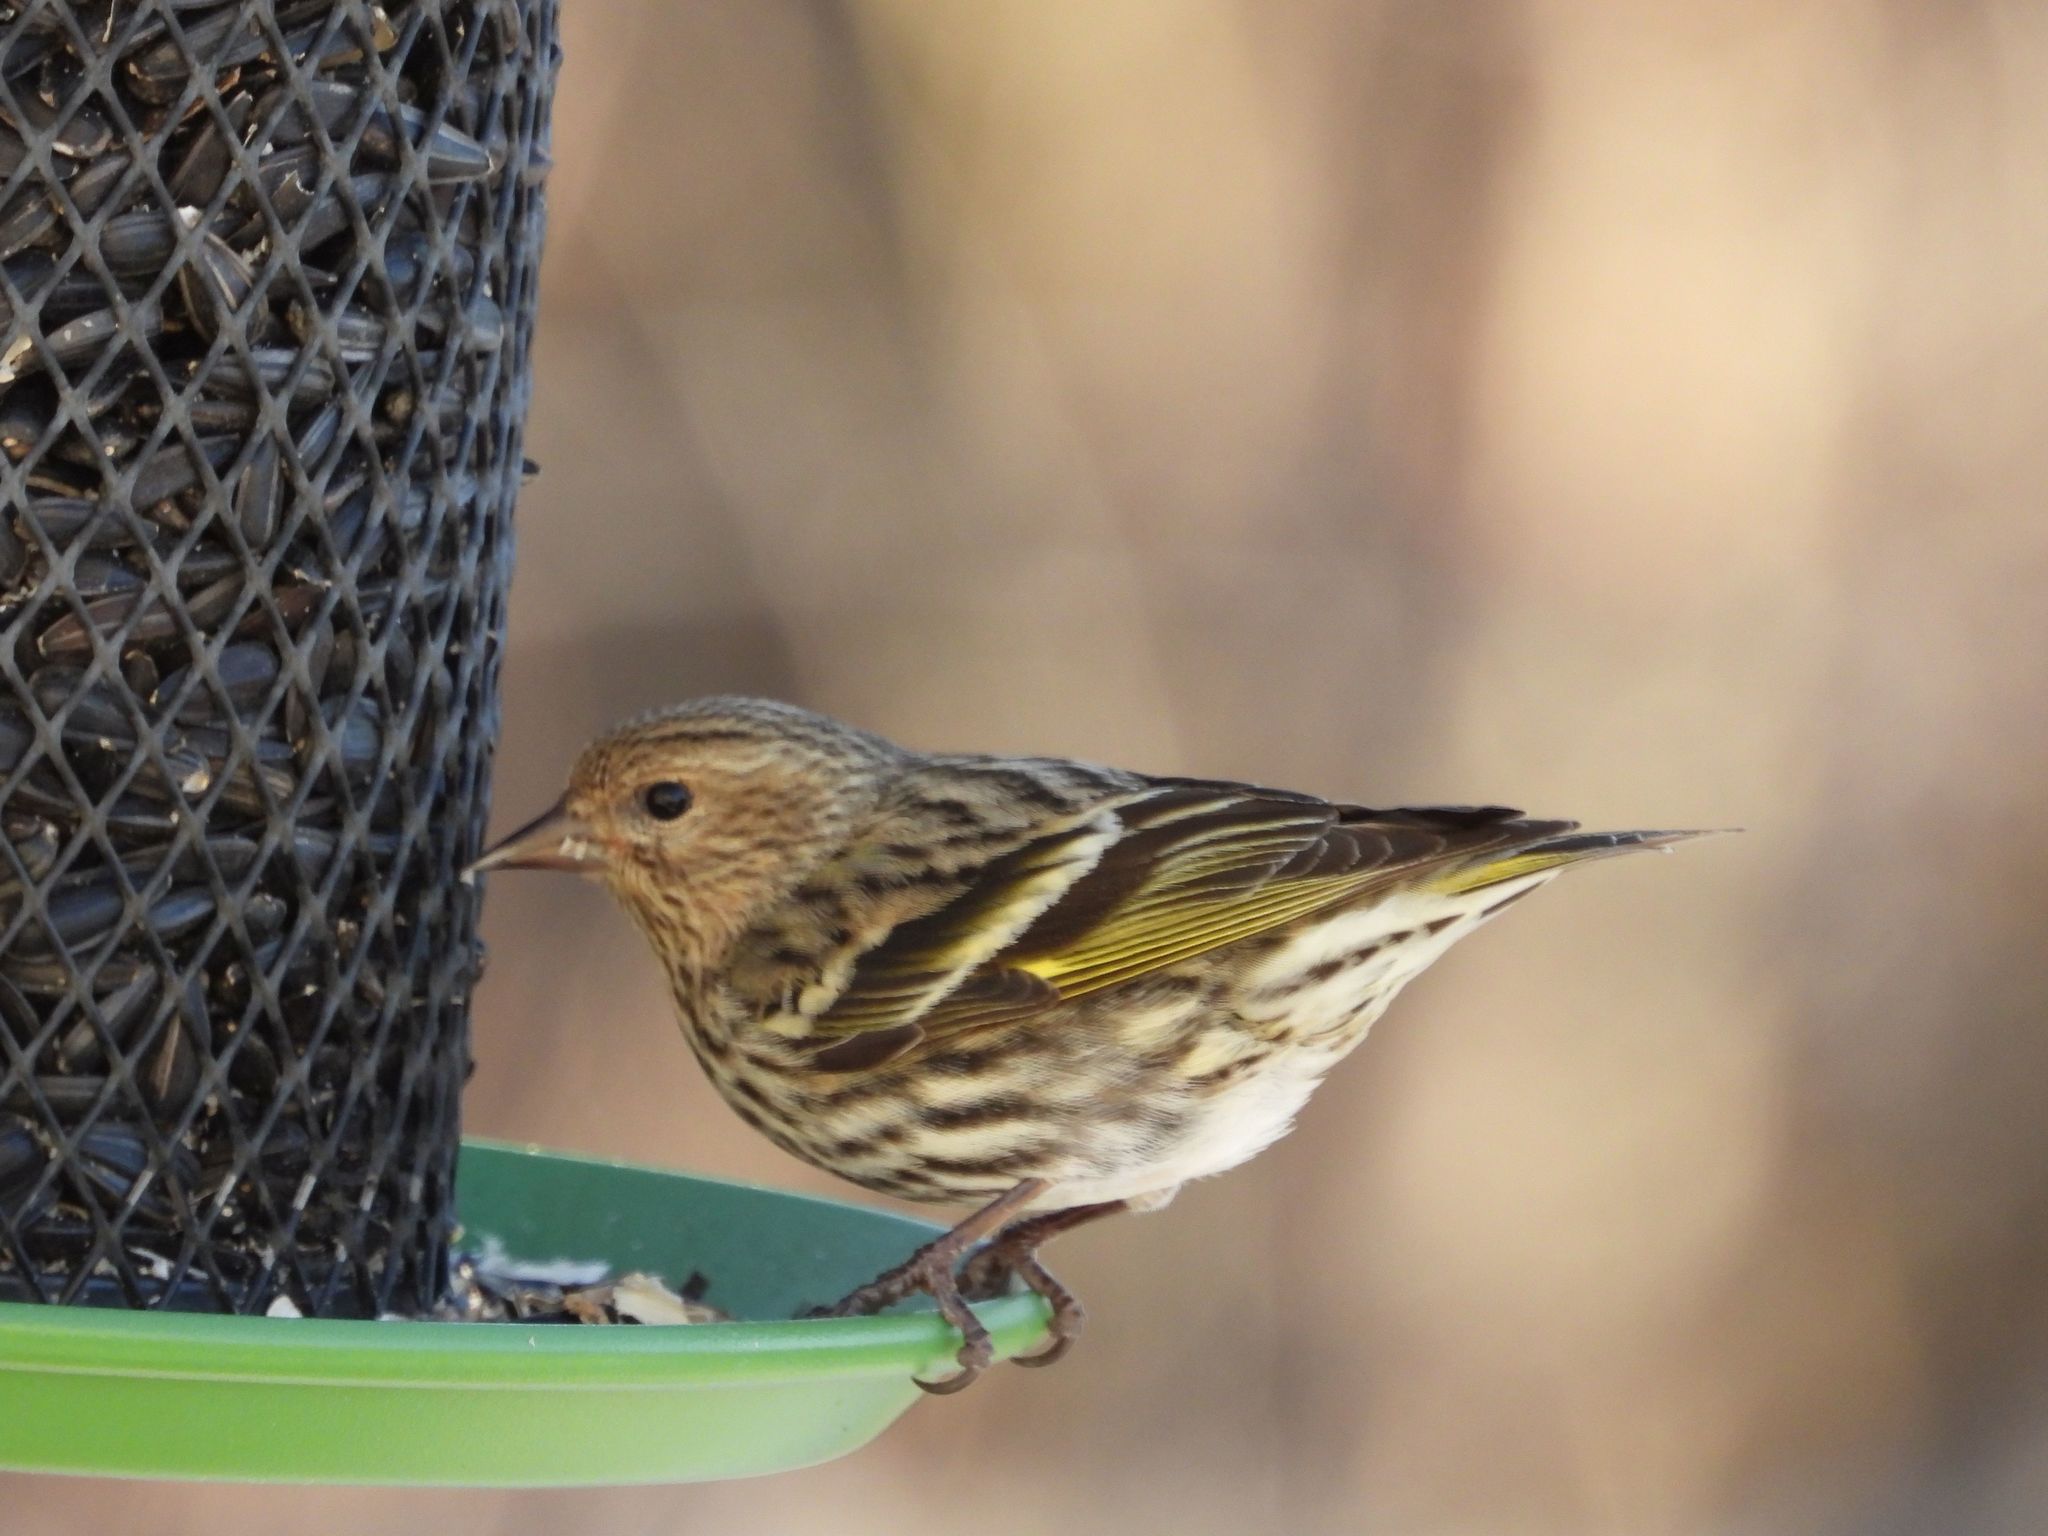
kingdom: Animalia
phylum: Chordata
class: Aves
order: Passeriformes
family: Fringillidae
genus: Spinus
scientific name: Spinus pinus
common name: Pine siskin
